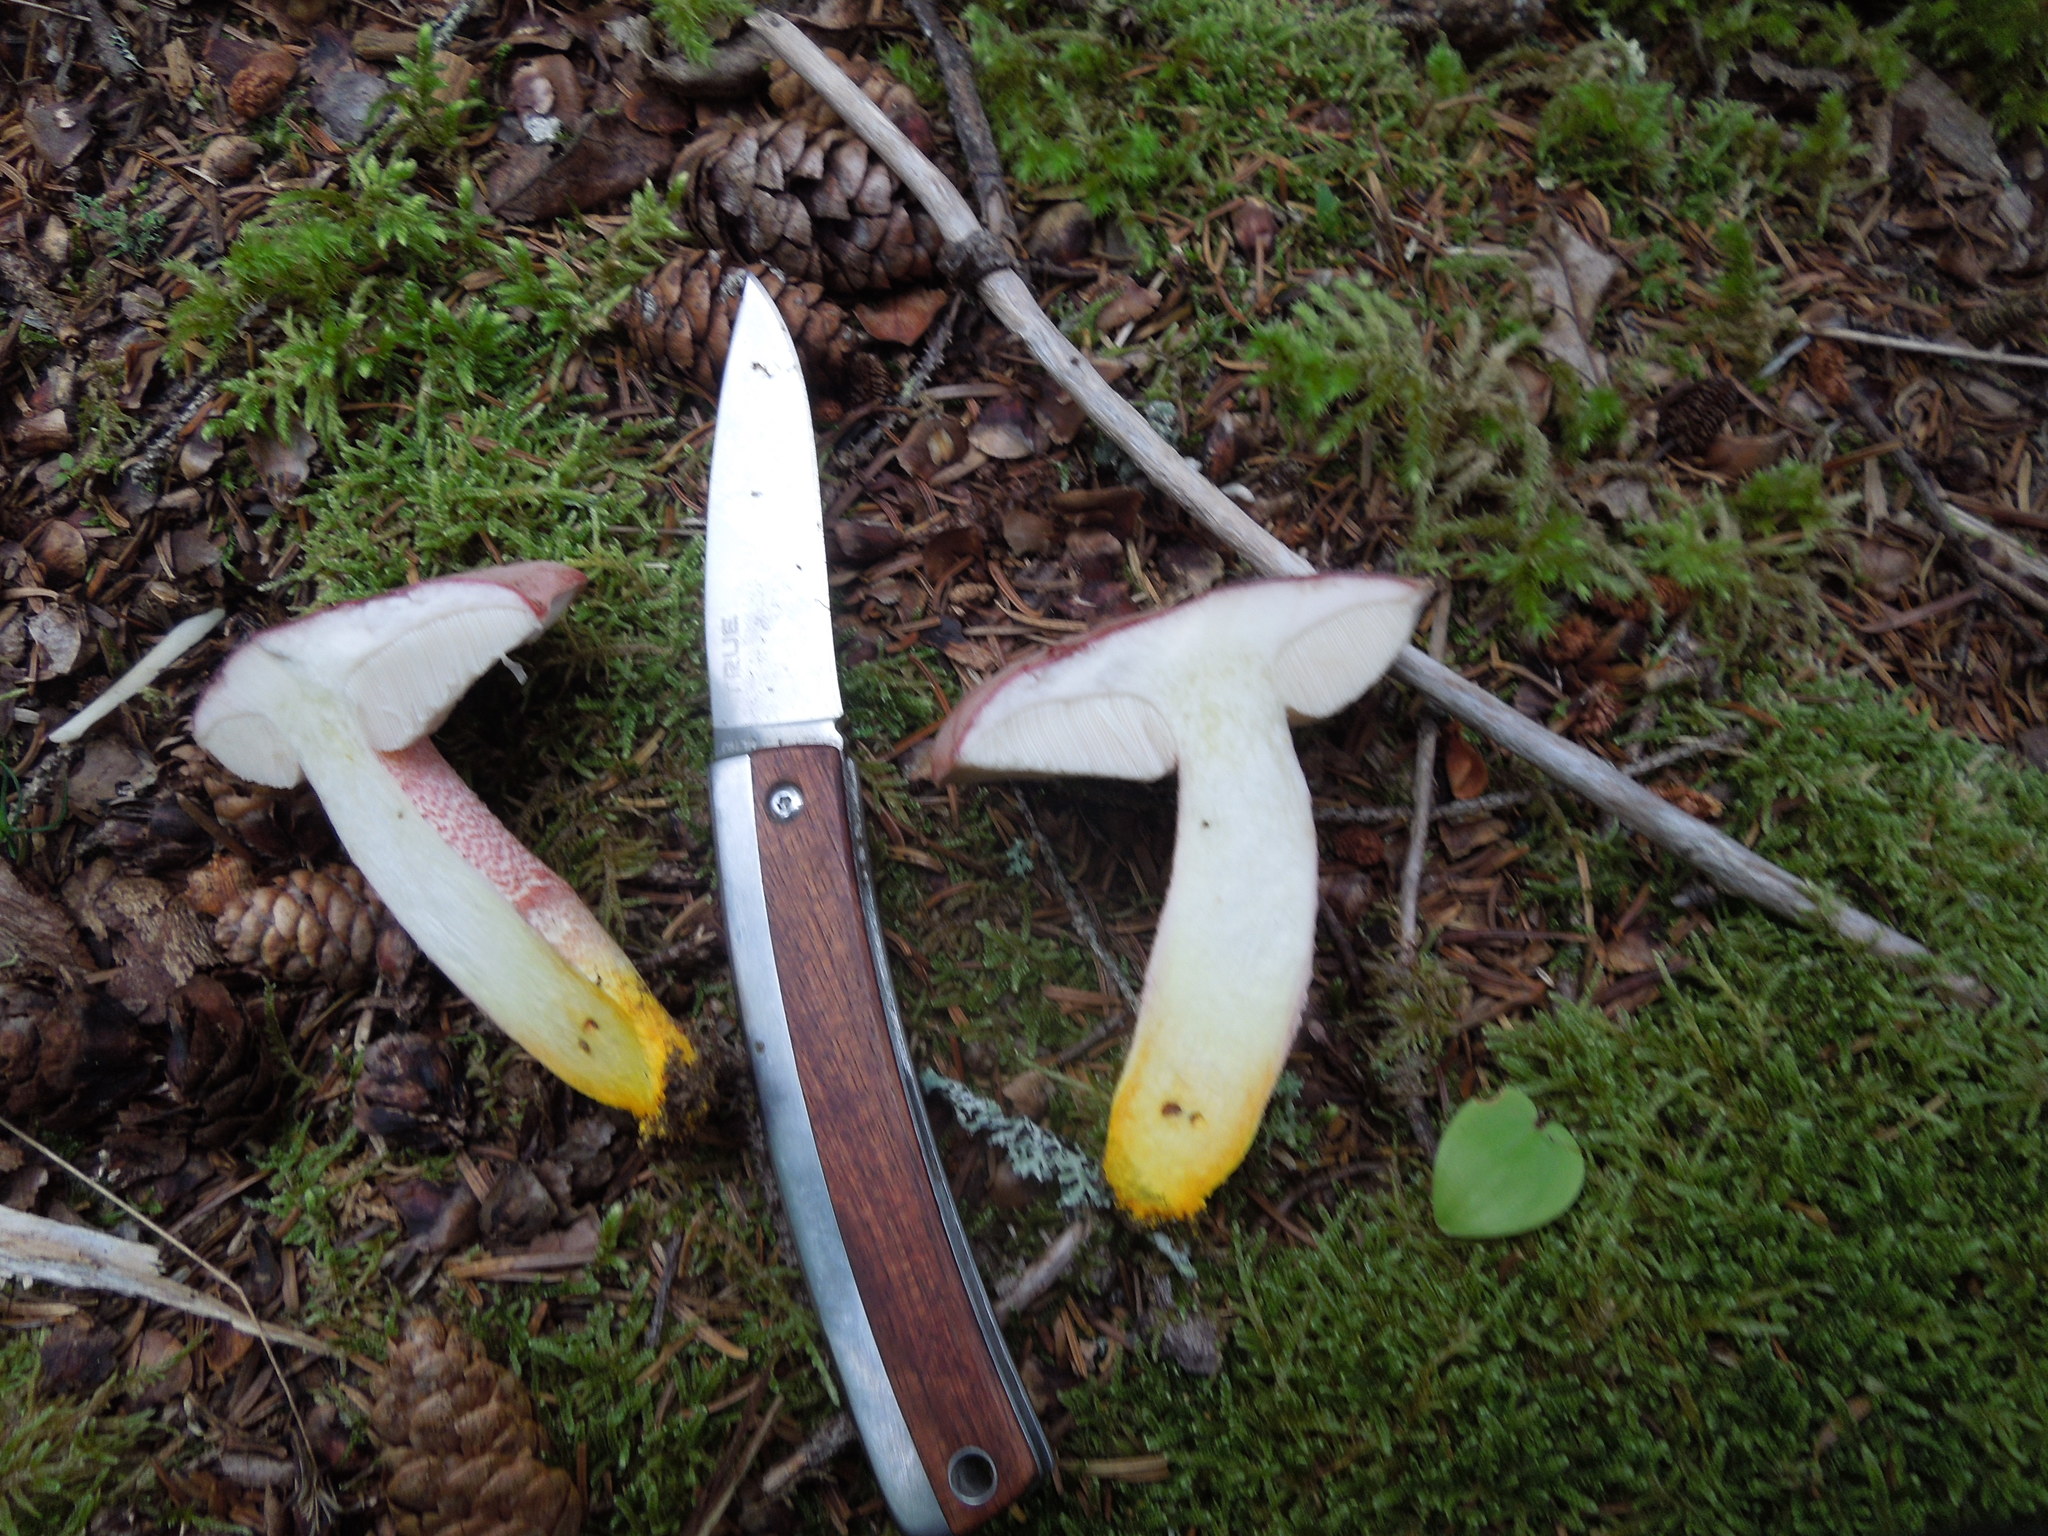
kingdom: Fungi
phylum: Basidiomycota
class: Agaricomycetes
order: Boletales
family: Boletaceae
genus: Harrya
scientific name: Harrya chromipes
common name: Chrome-footed bolete
